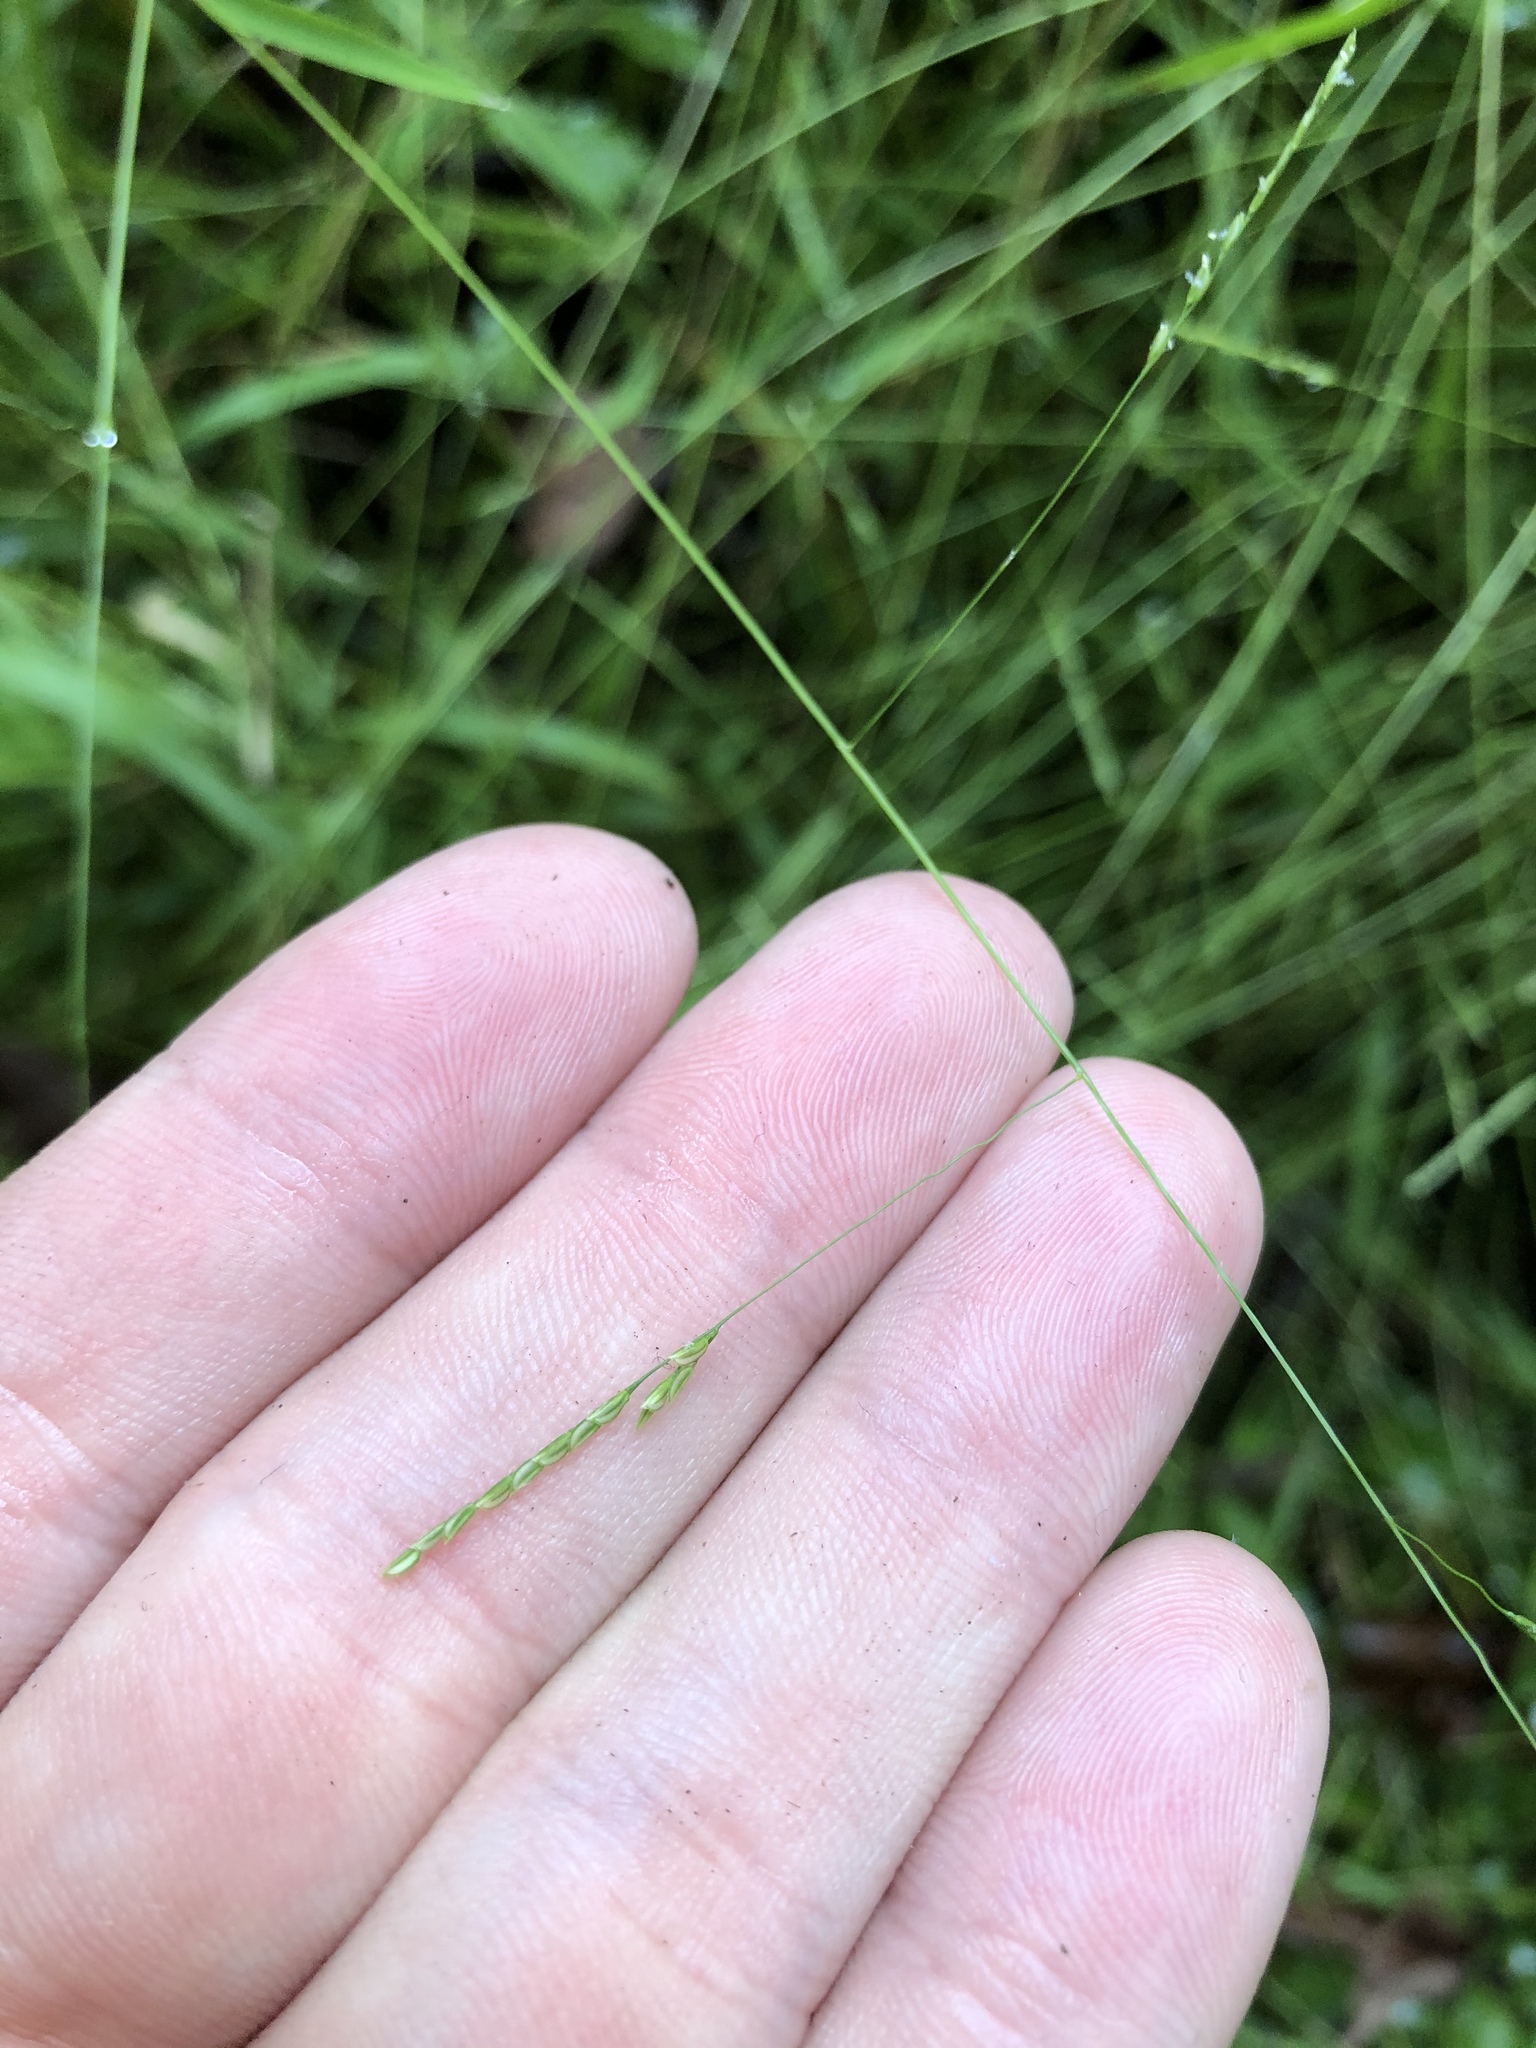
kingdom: Plantae
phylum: Tracheophyta
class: Liliopsida
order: Poales
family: Poaceae
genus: Leersia
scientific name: Leersia virginica
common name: White cutgrass
